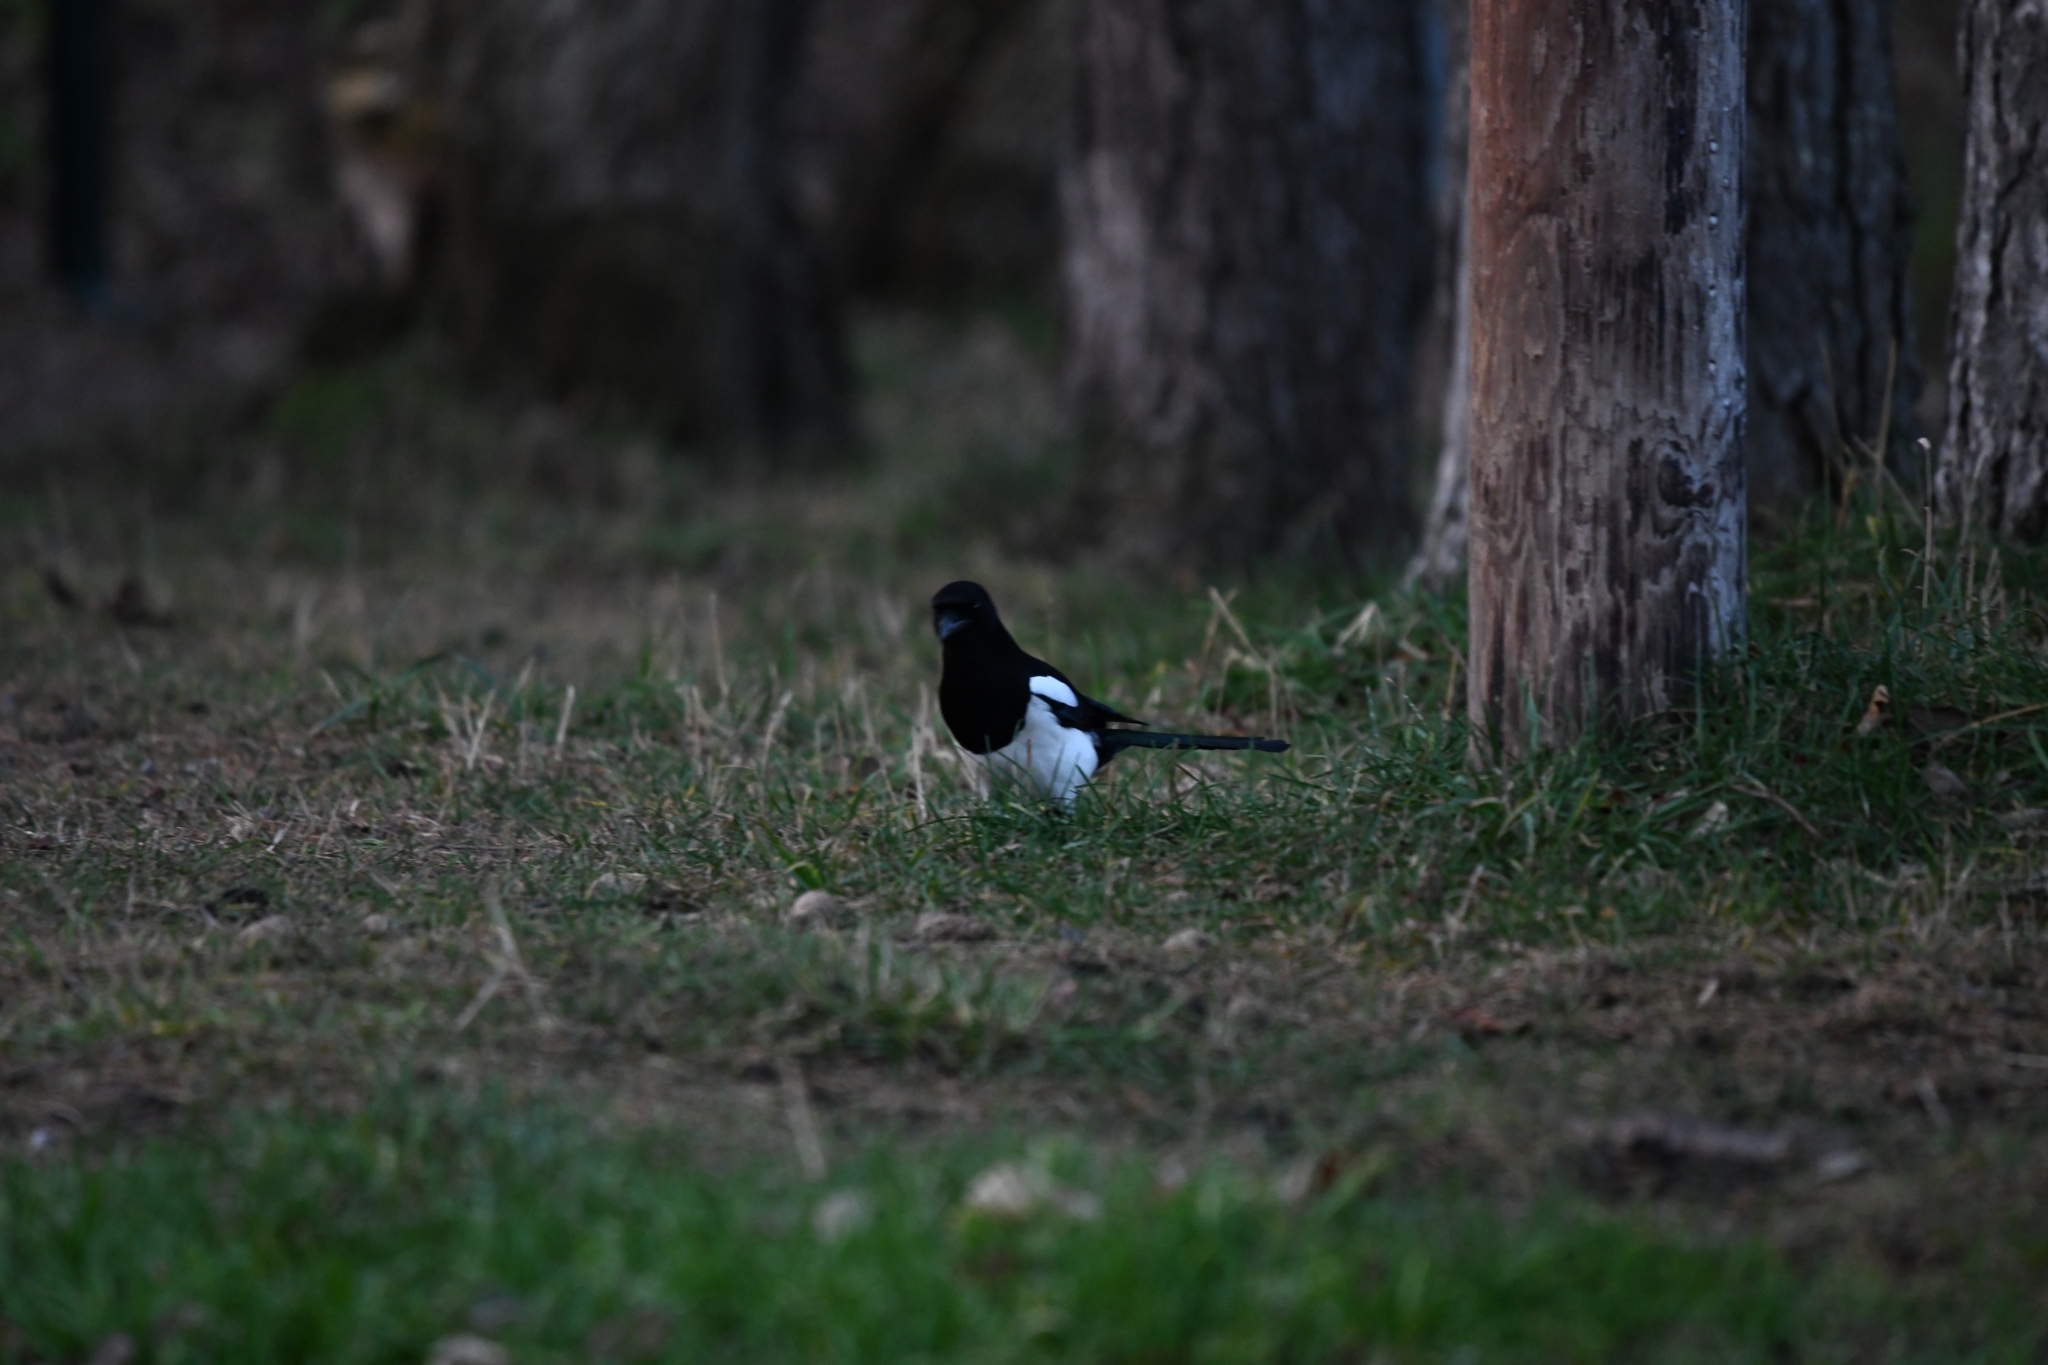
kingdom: Animalia
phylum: Chordata
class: Aves
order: Passeriformes
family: Corvidae
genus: Pica
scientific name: Pica pica
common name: Eurasian magpie
